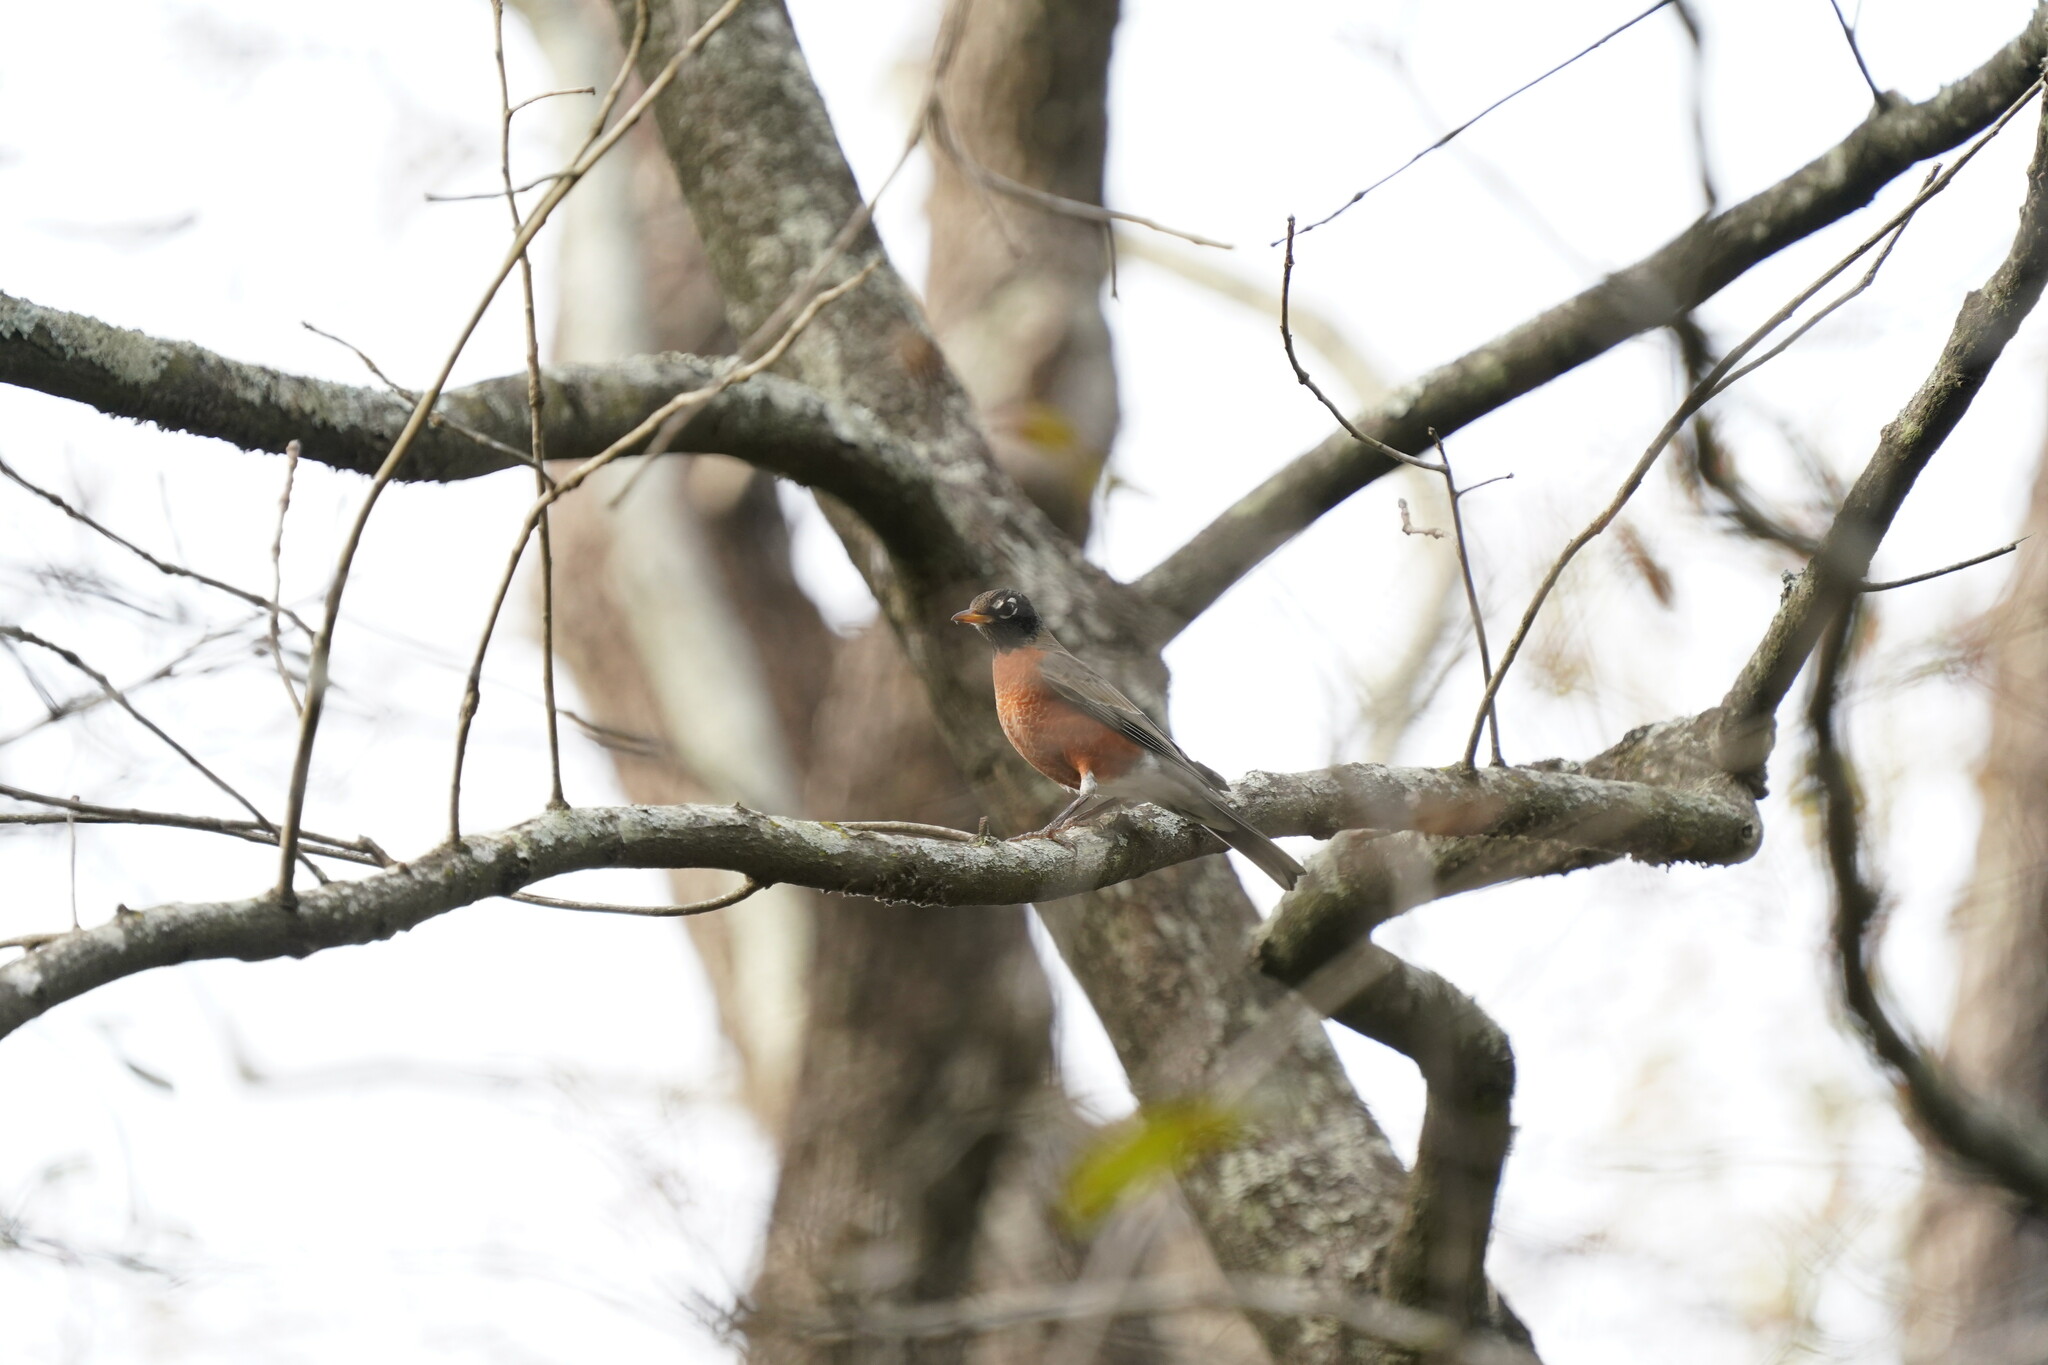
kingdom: Animalia
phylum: Chordata
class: Aves
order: Passeriformes
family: Turdidae
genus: Turdus
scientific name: Turdus migratorius
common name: American robin
